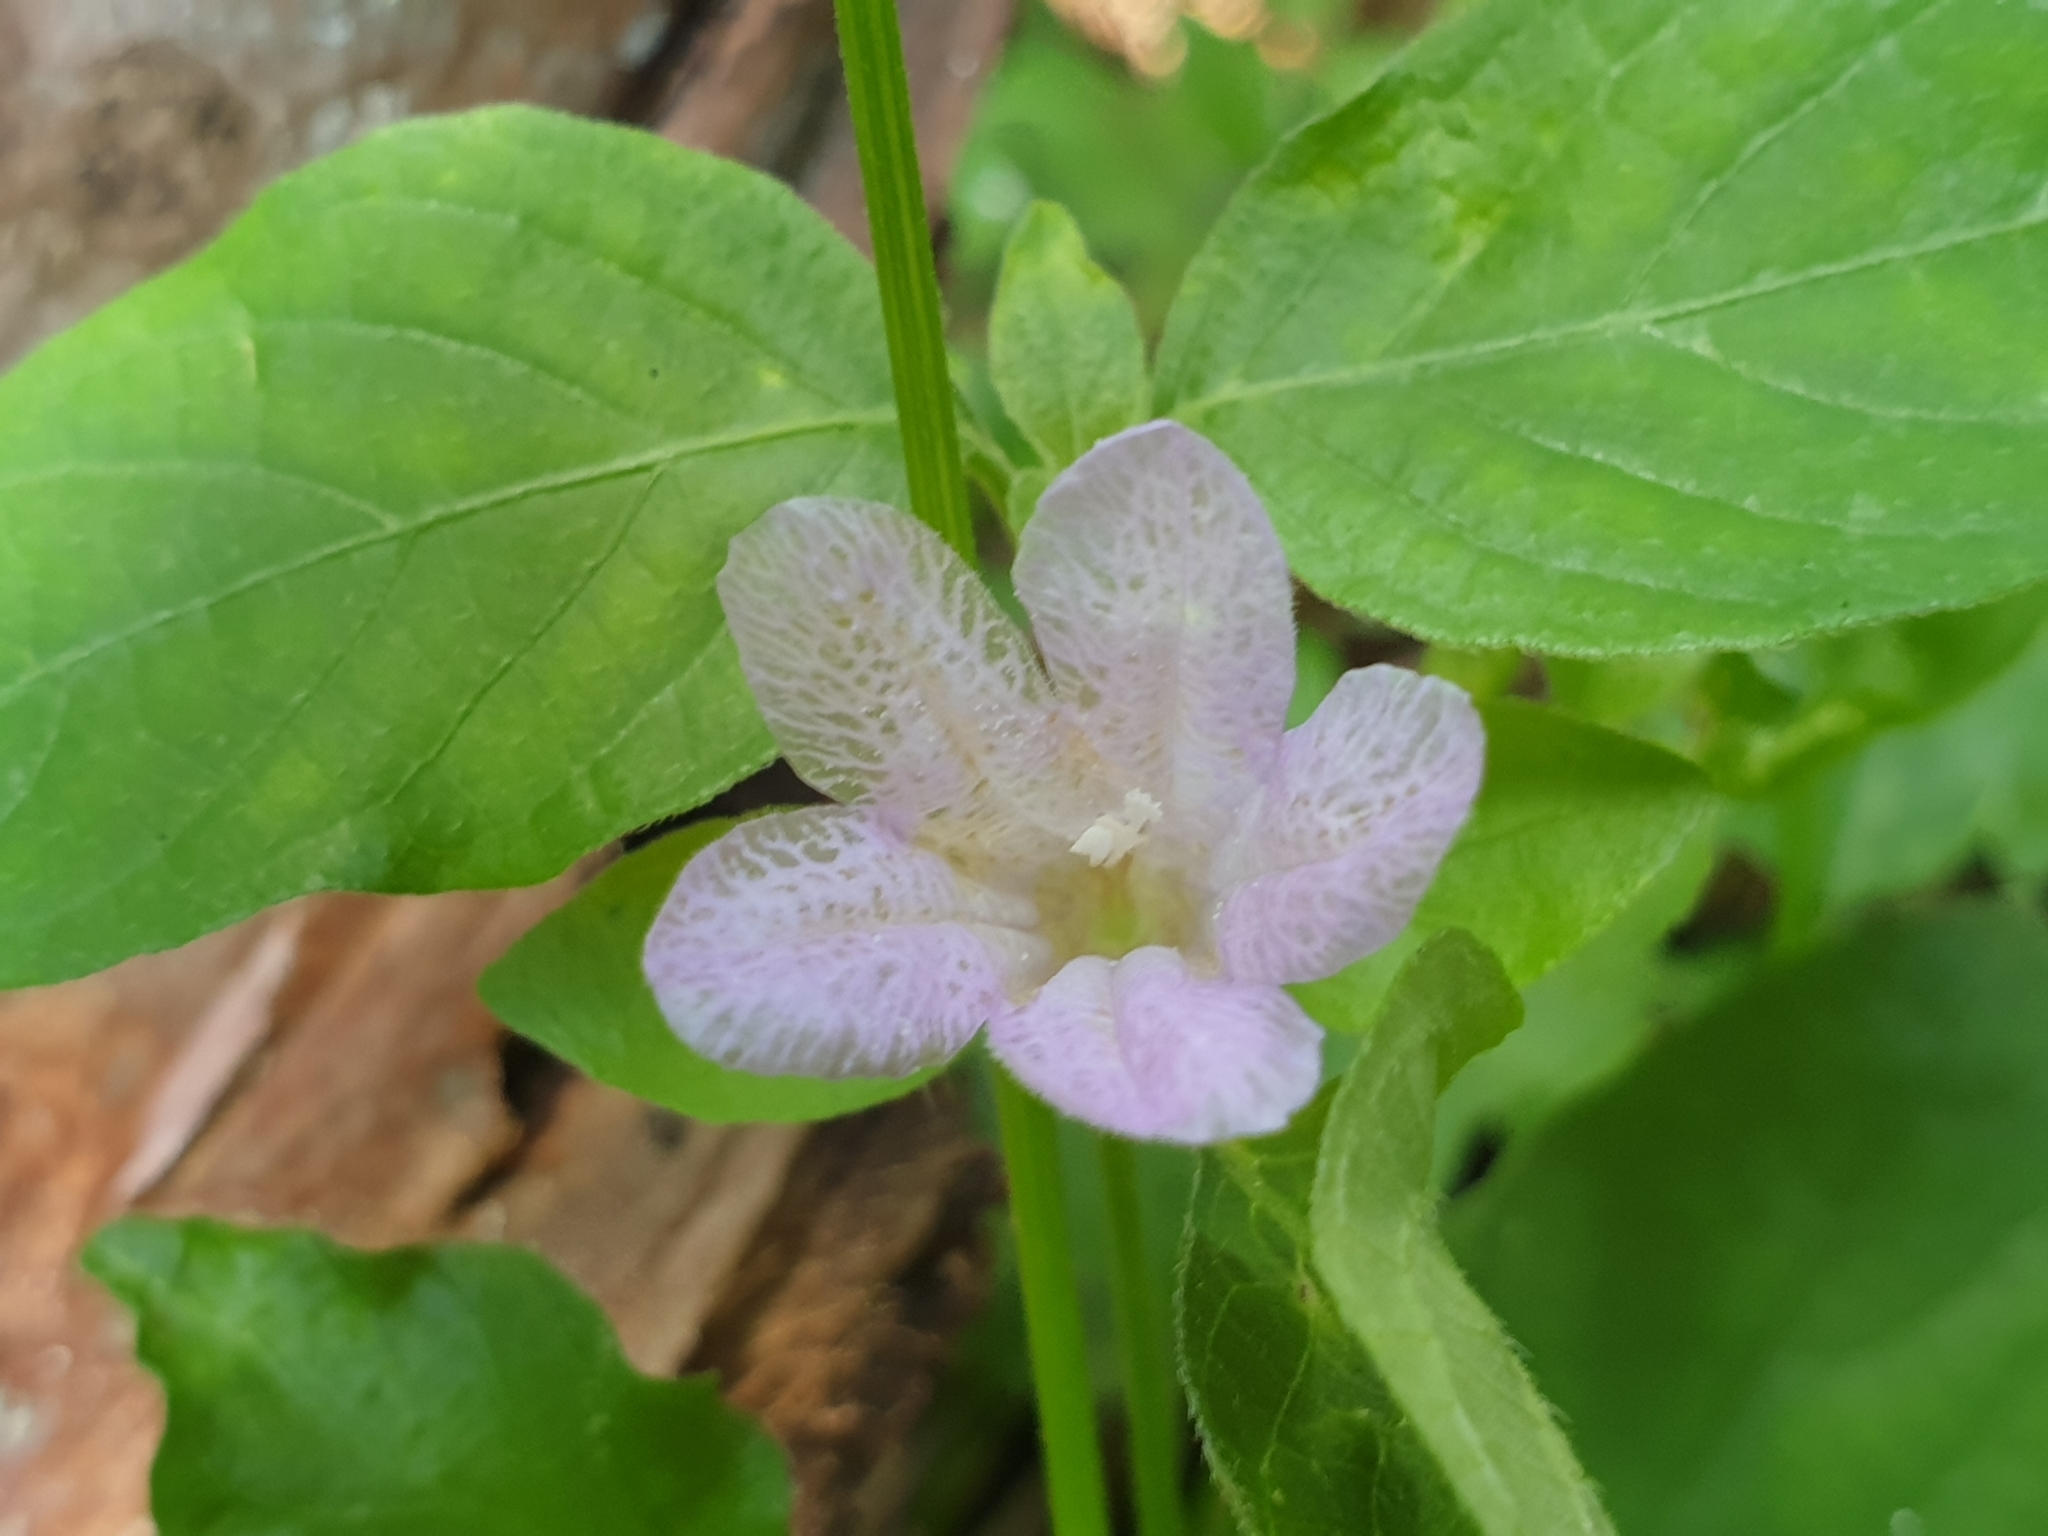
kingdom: Plantae
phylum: Tracheophyta
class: Magnoliopsida
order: Lamiales
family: Acanthaceae
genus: Ruellia
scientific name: Ruellia prostrata
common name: Prostrate wild petunia
